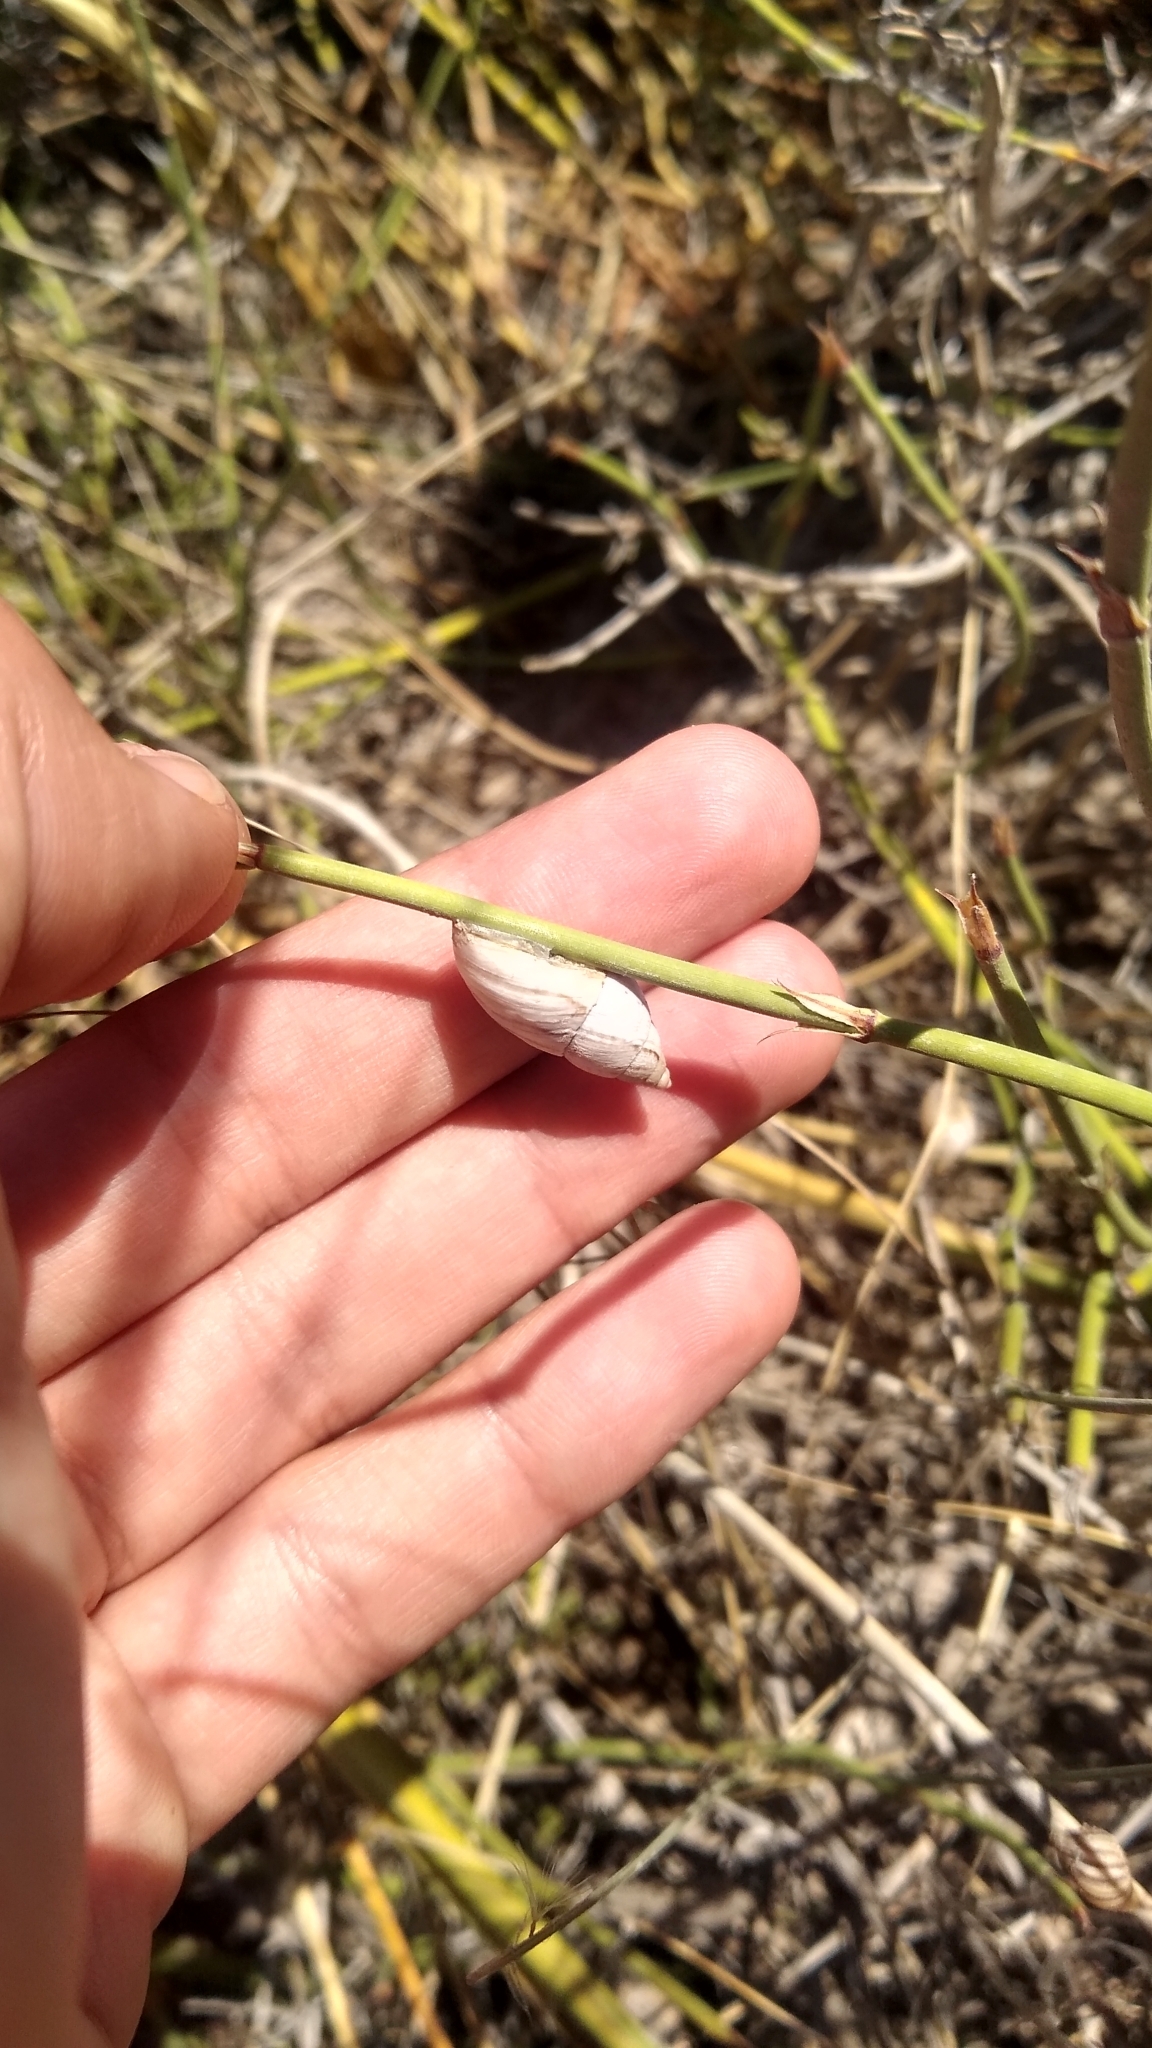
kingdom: Animalia
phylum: Mollusca
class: Gastropoda
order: Stylommatophora
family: Bothriembryontidae
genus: Discoleus
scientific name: Discoleus ameghinoi
